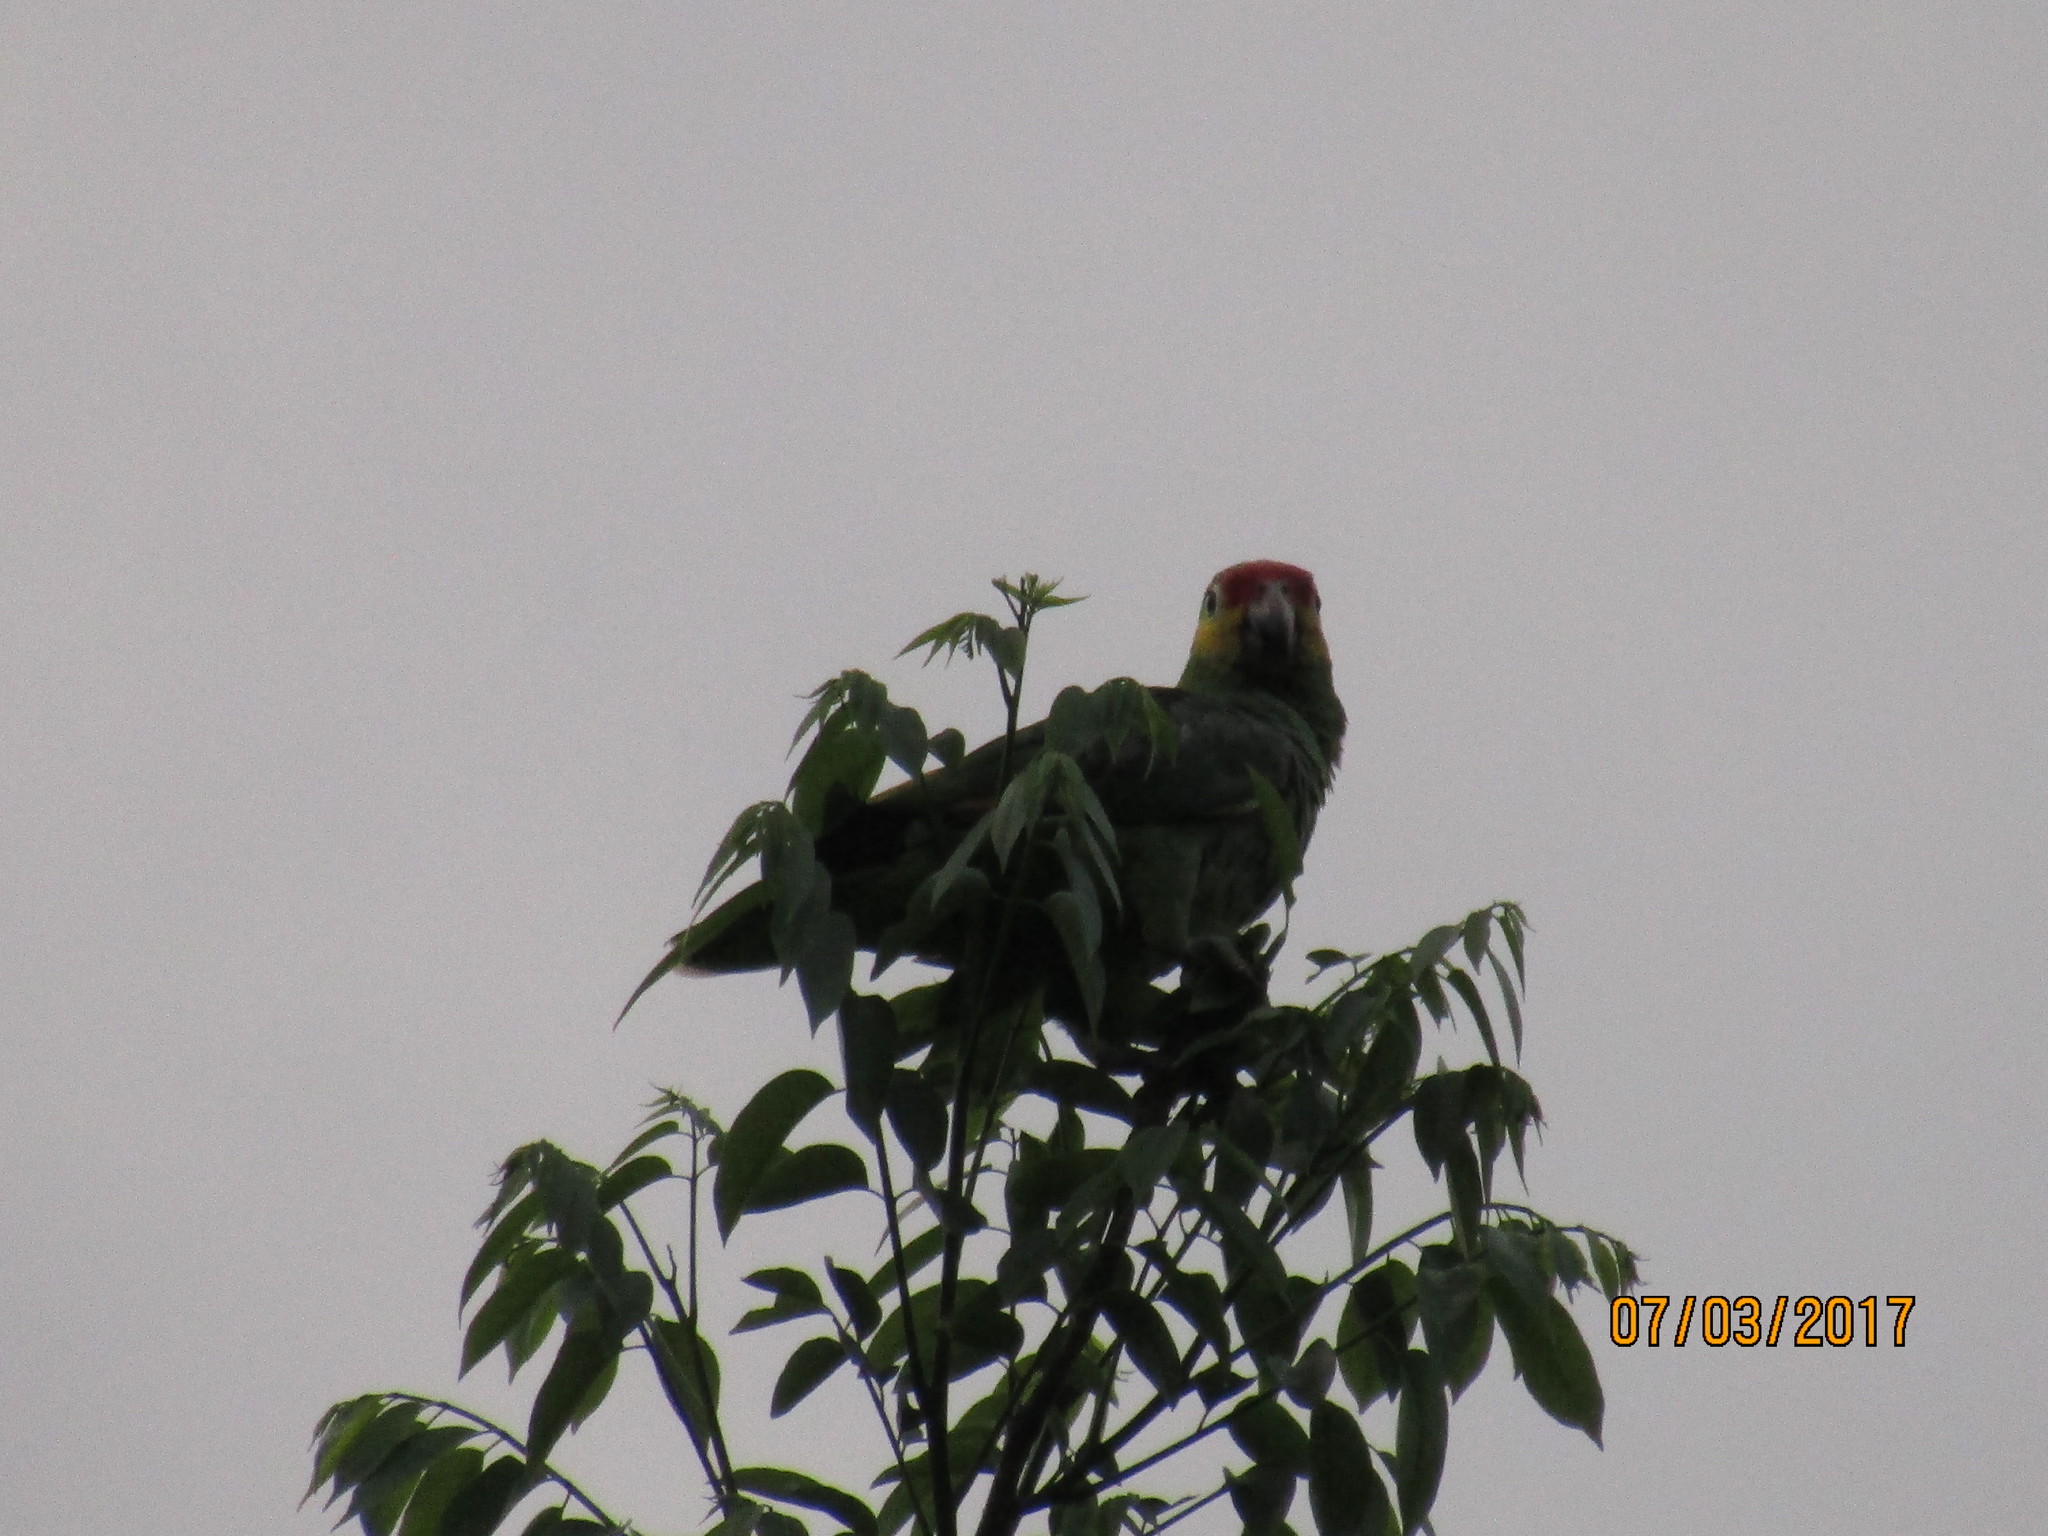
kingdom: Animalia
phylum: Chordata
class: Aves
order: Psittaciformes
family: Psittacidae
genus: Amazona
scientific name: Amazona autumnalis
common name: Red-lored amazon
